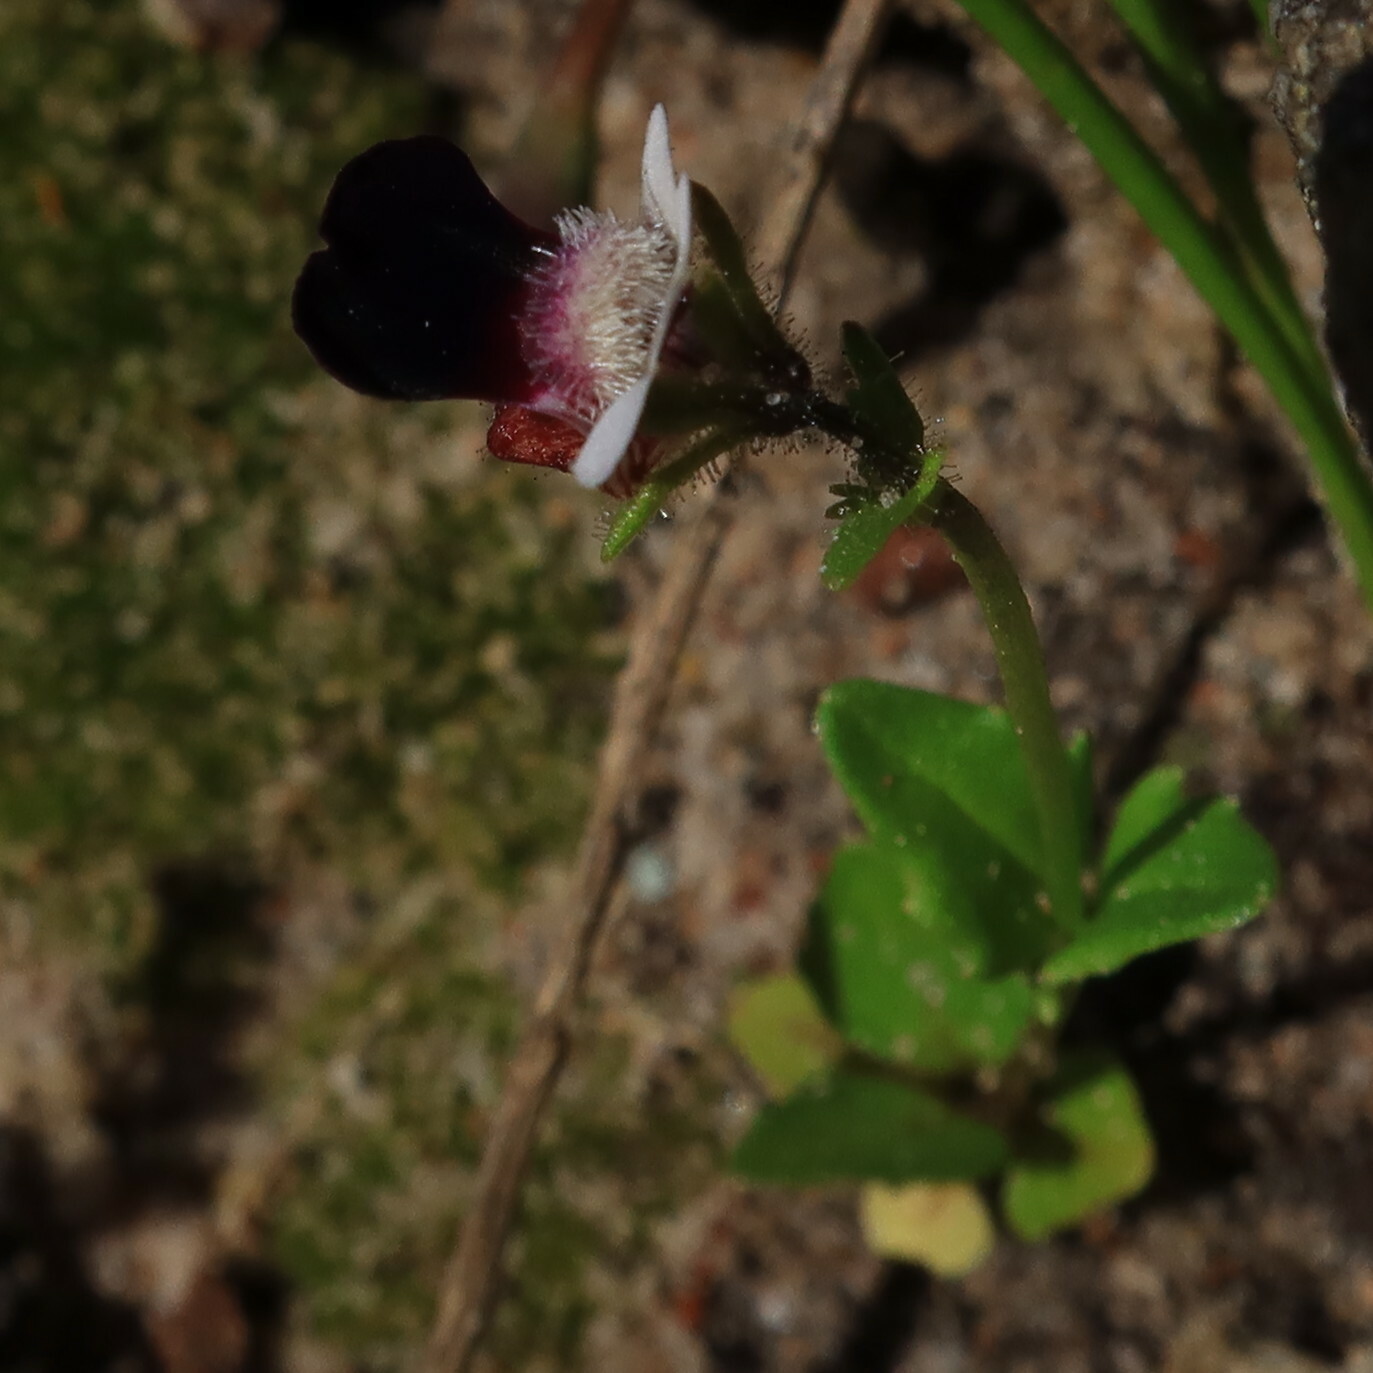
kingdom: Plantae
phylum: Tracheophyta
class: Magnoliopsida
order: Lamiales
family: Scrophulariaceae
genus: Nemesia
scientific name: Nemesia barbata
